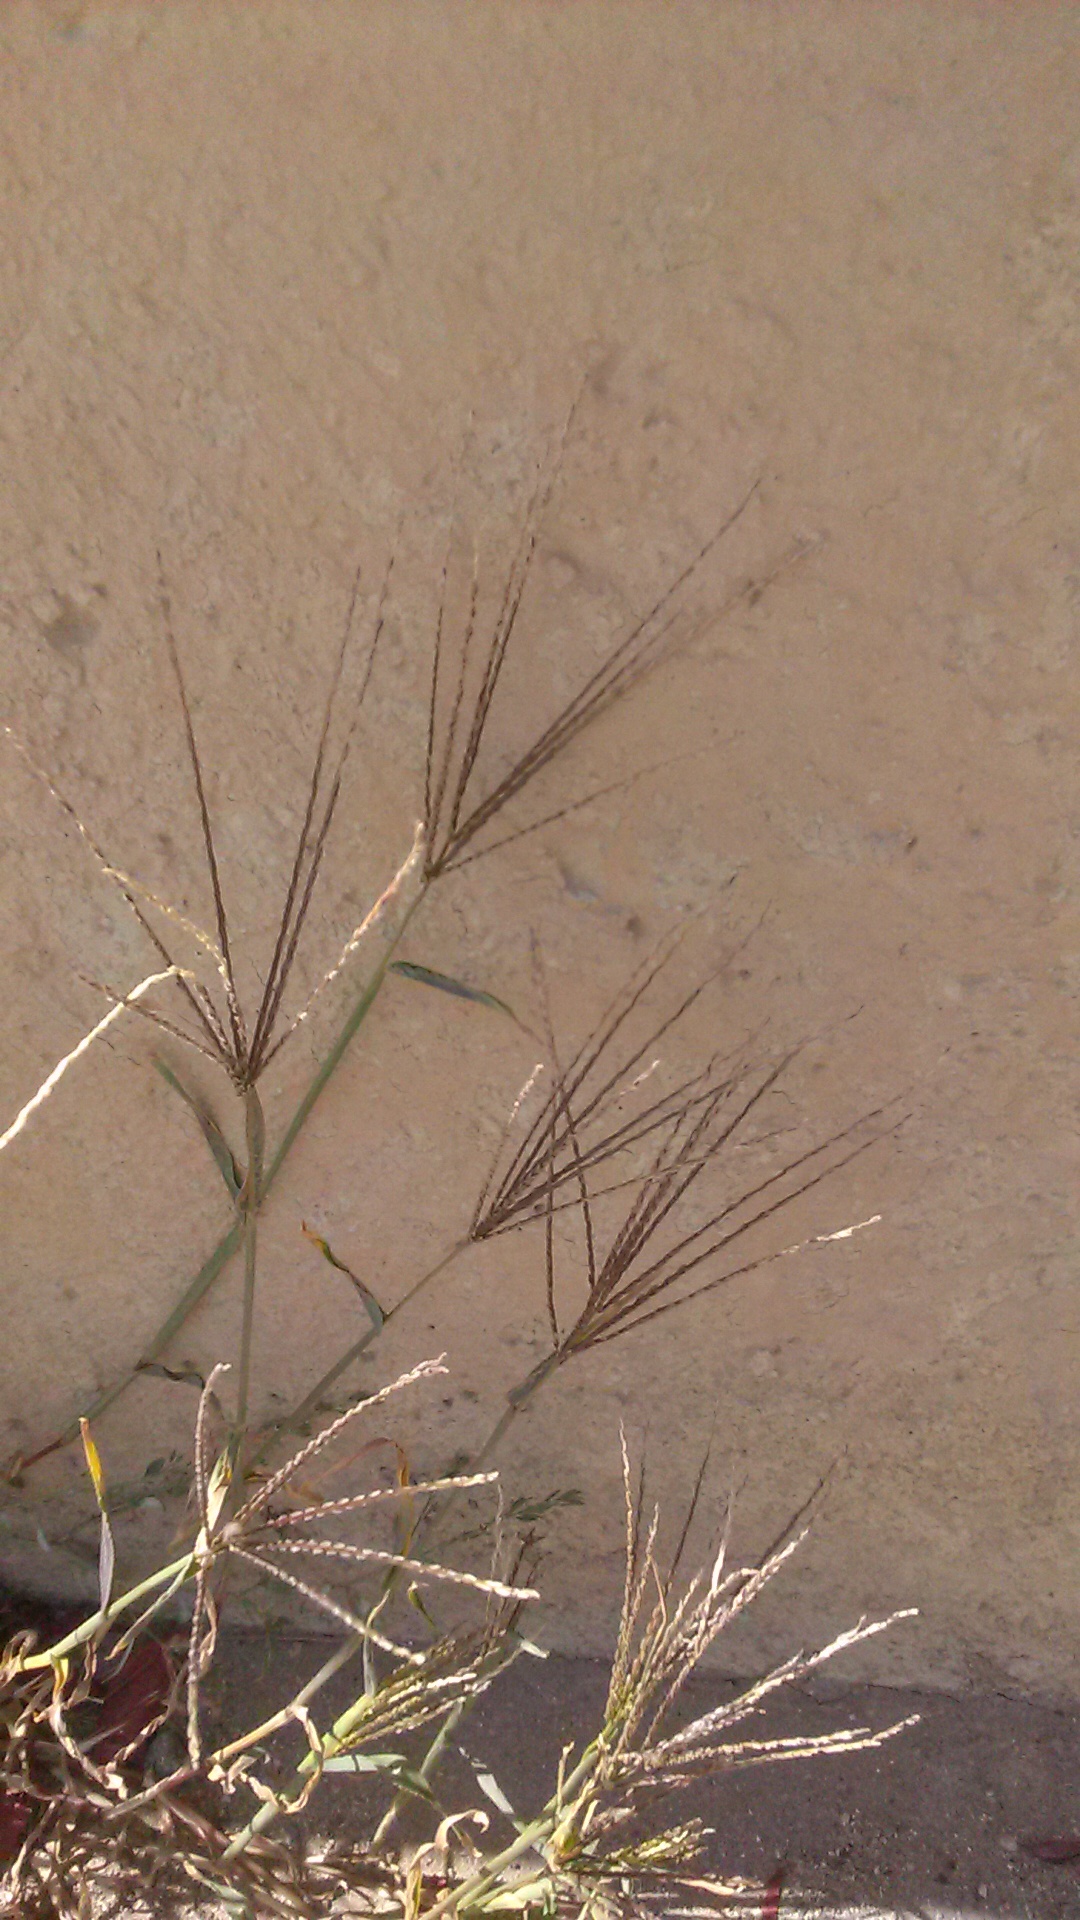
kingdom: Plantae
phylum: Tracheophyta
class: Liliopsida
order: Poales
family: Poaceae
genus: Digitaria
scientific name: Digitaria sanguinalis
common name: Hairy crabgrass
